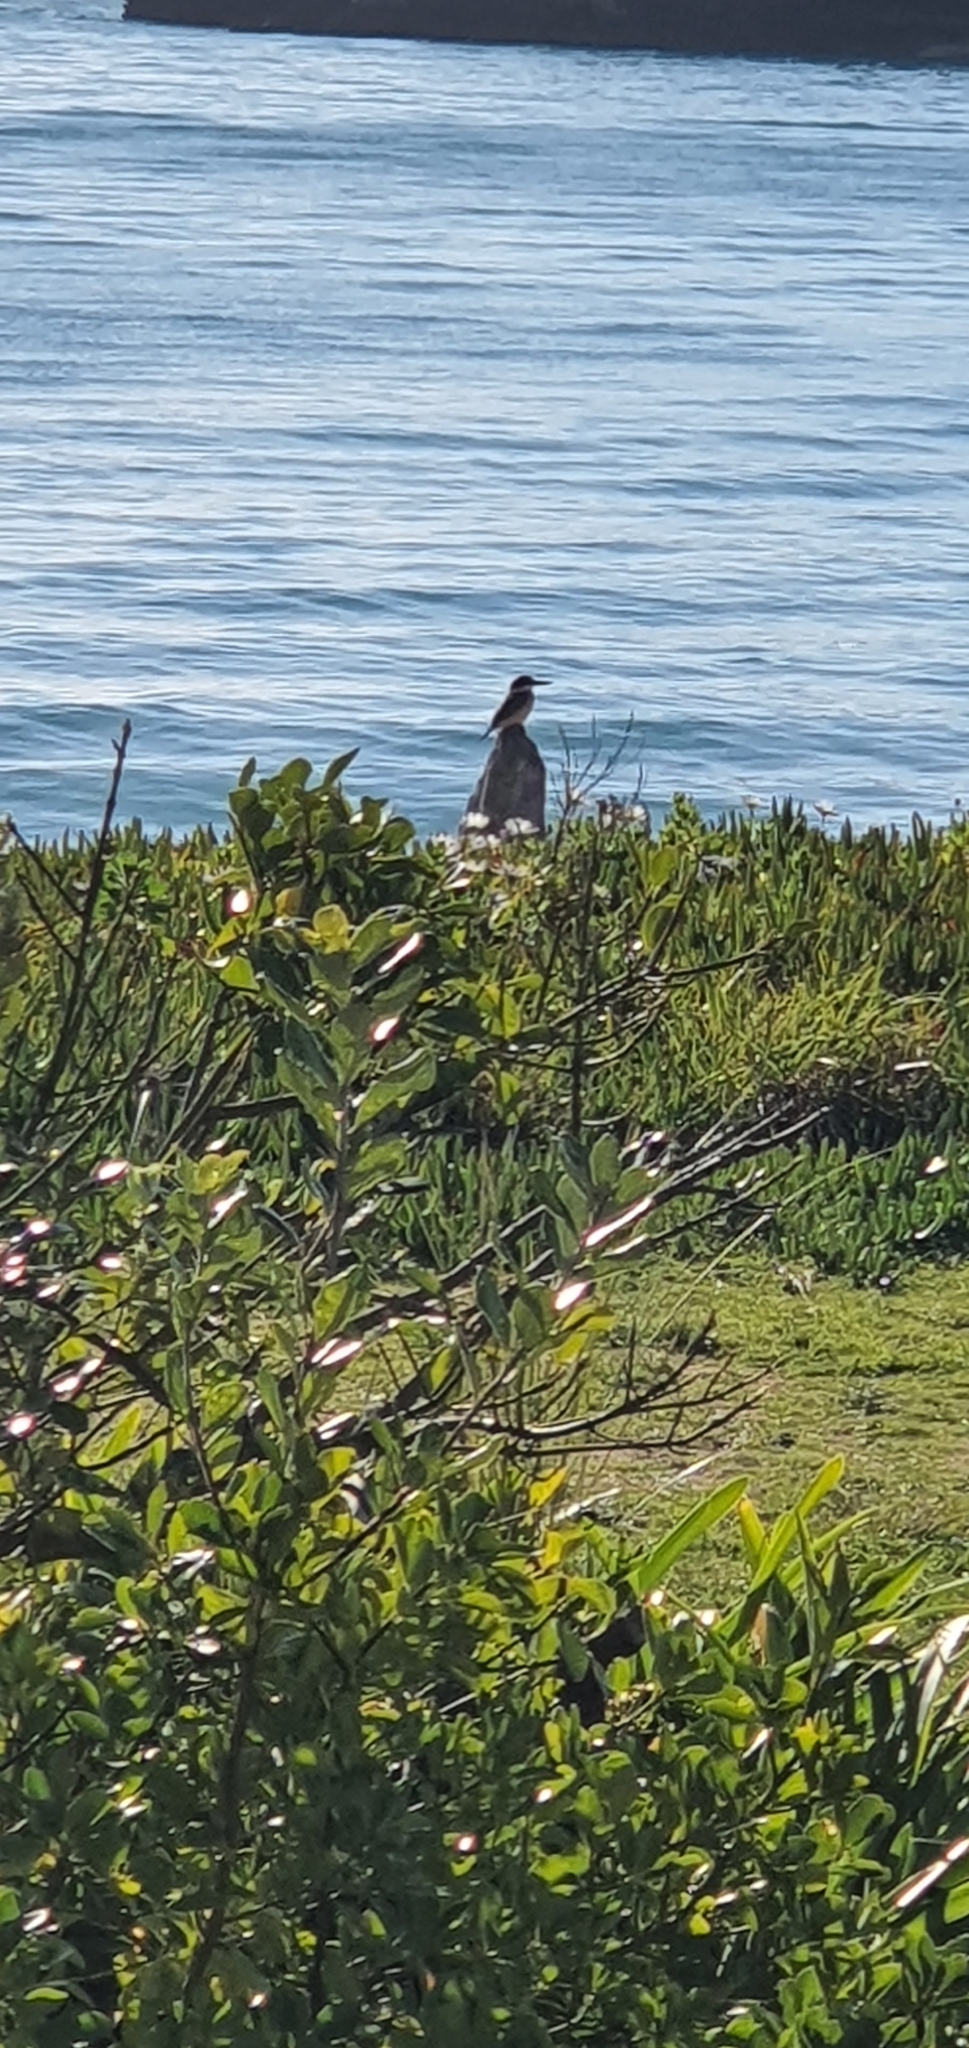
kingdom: Animalia
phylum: Chordata
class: Aves
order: Coraciiformes
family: Alcedinidae
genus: Todiramphus
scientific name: Todiramphus sanctus
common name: Sacred kingfisher
